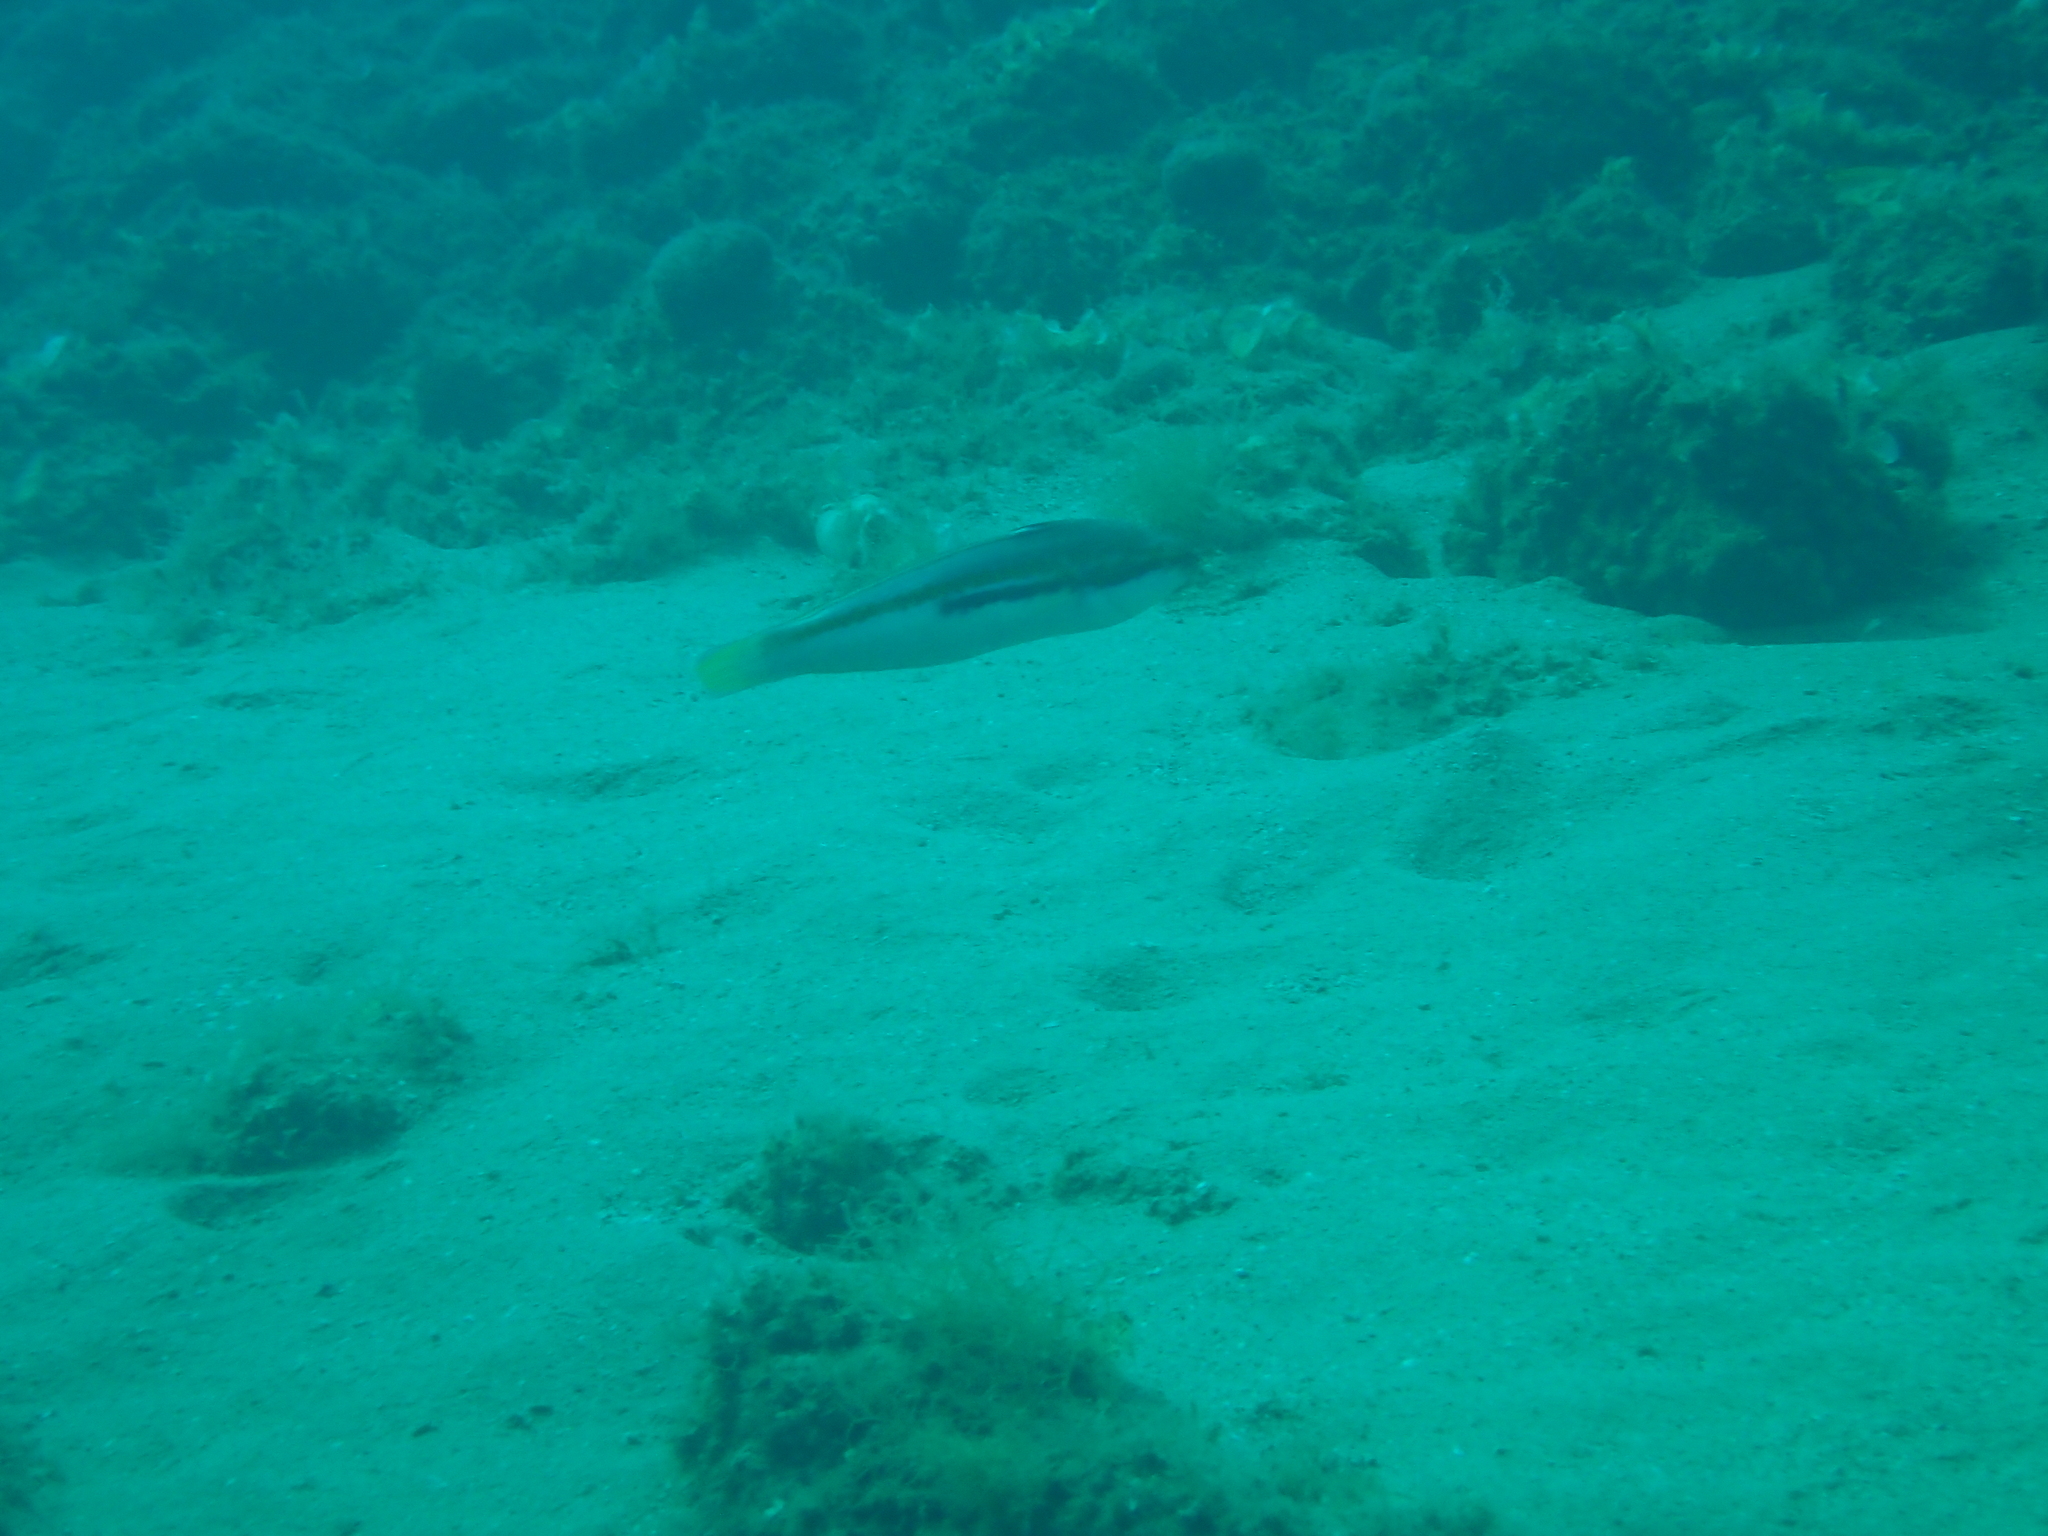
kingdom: Animalia
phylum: Chordata
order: Perciformes
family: Labridae
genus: Coris
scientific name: Coris julis
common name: Rainbow wrasse
